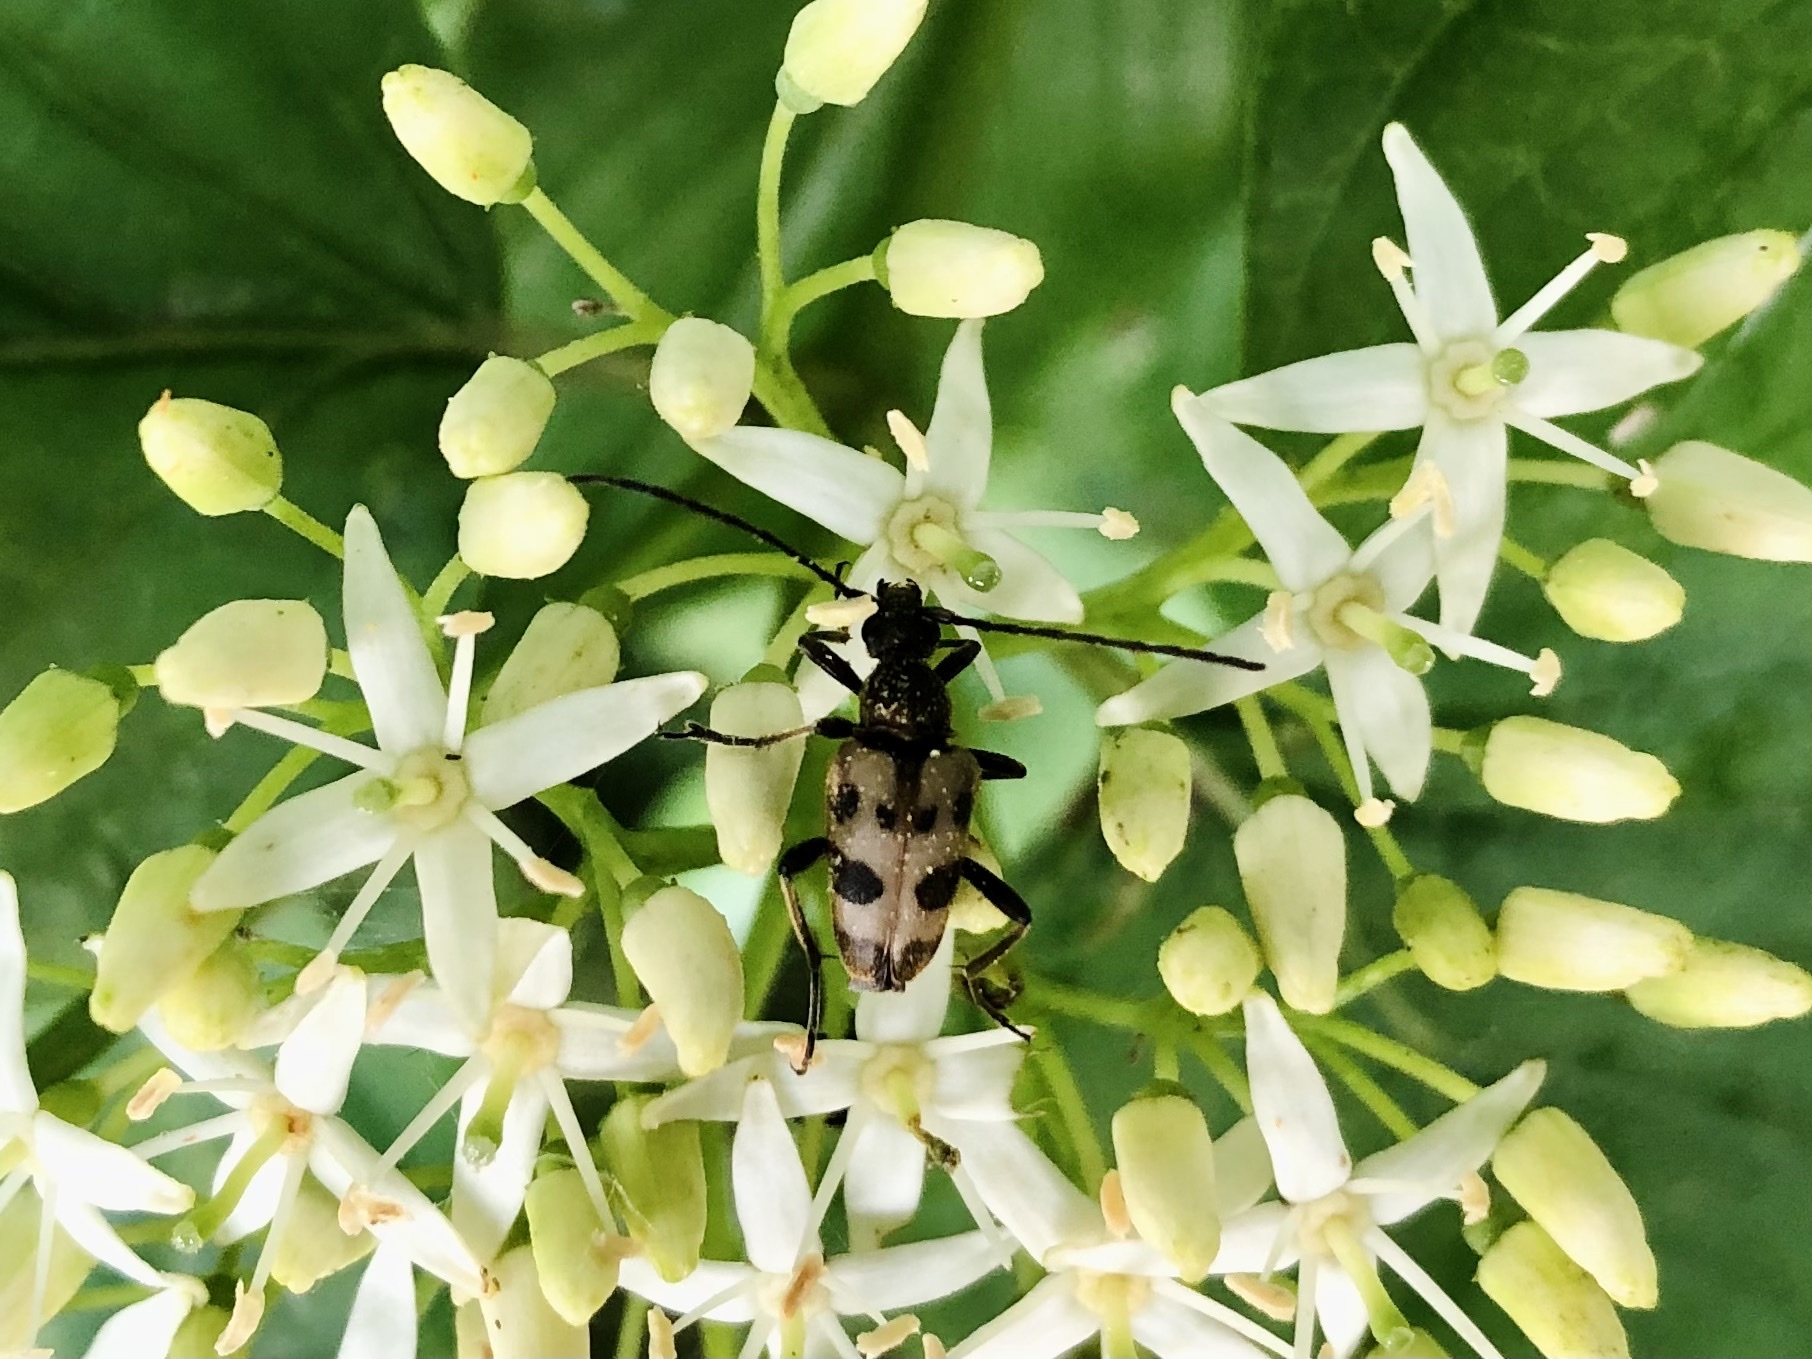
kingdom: Animalia
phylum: Arthropoda
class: Insecta
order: Coleoptera
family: Cerambycidae
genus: Pachytodes
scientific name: Pachytodes cerambyciformis
